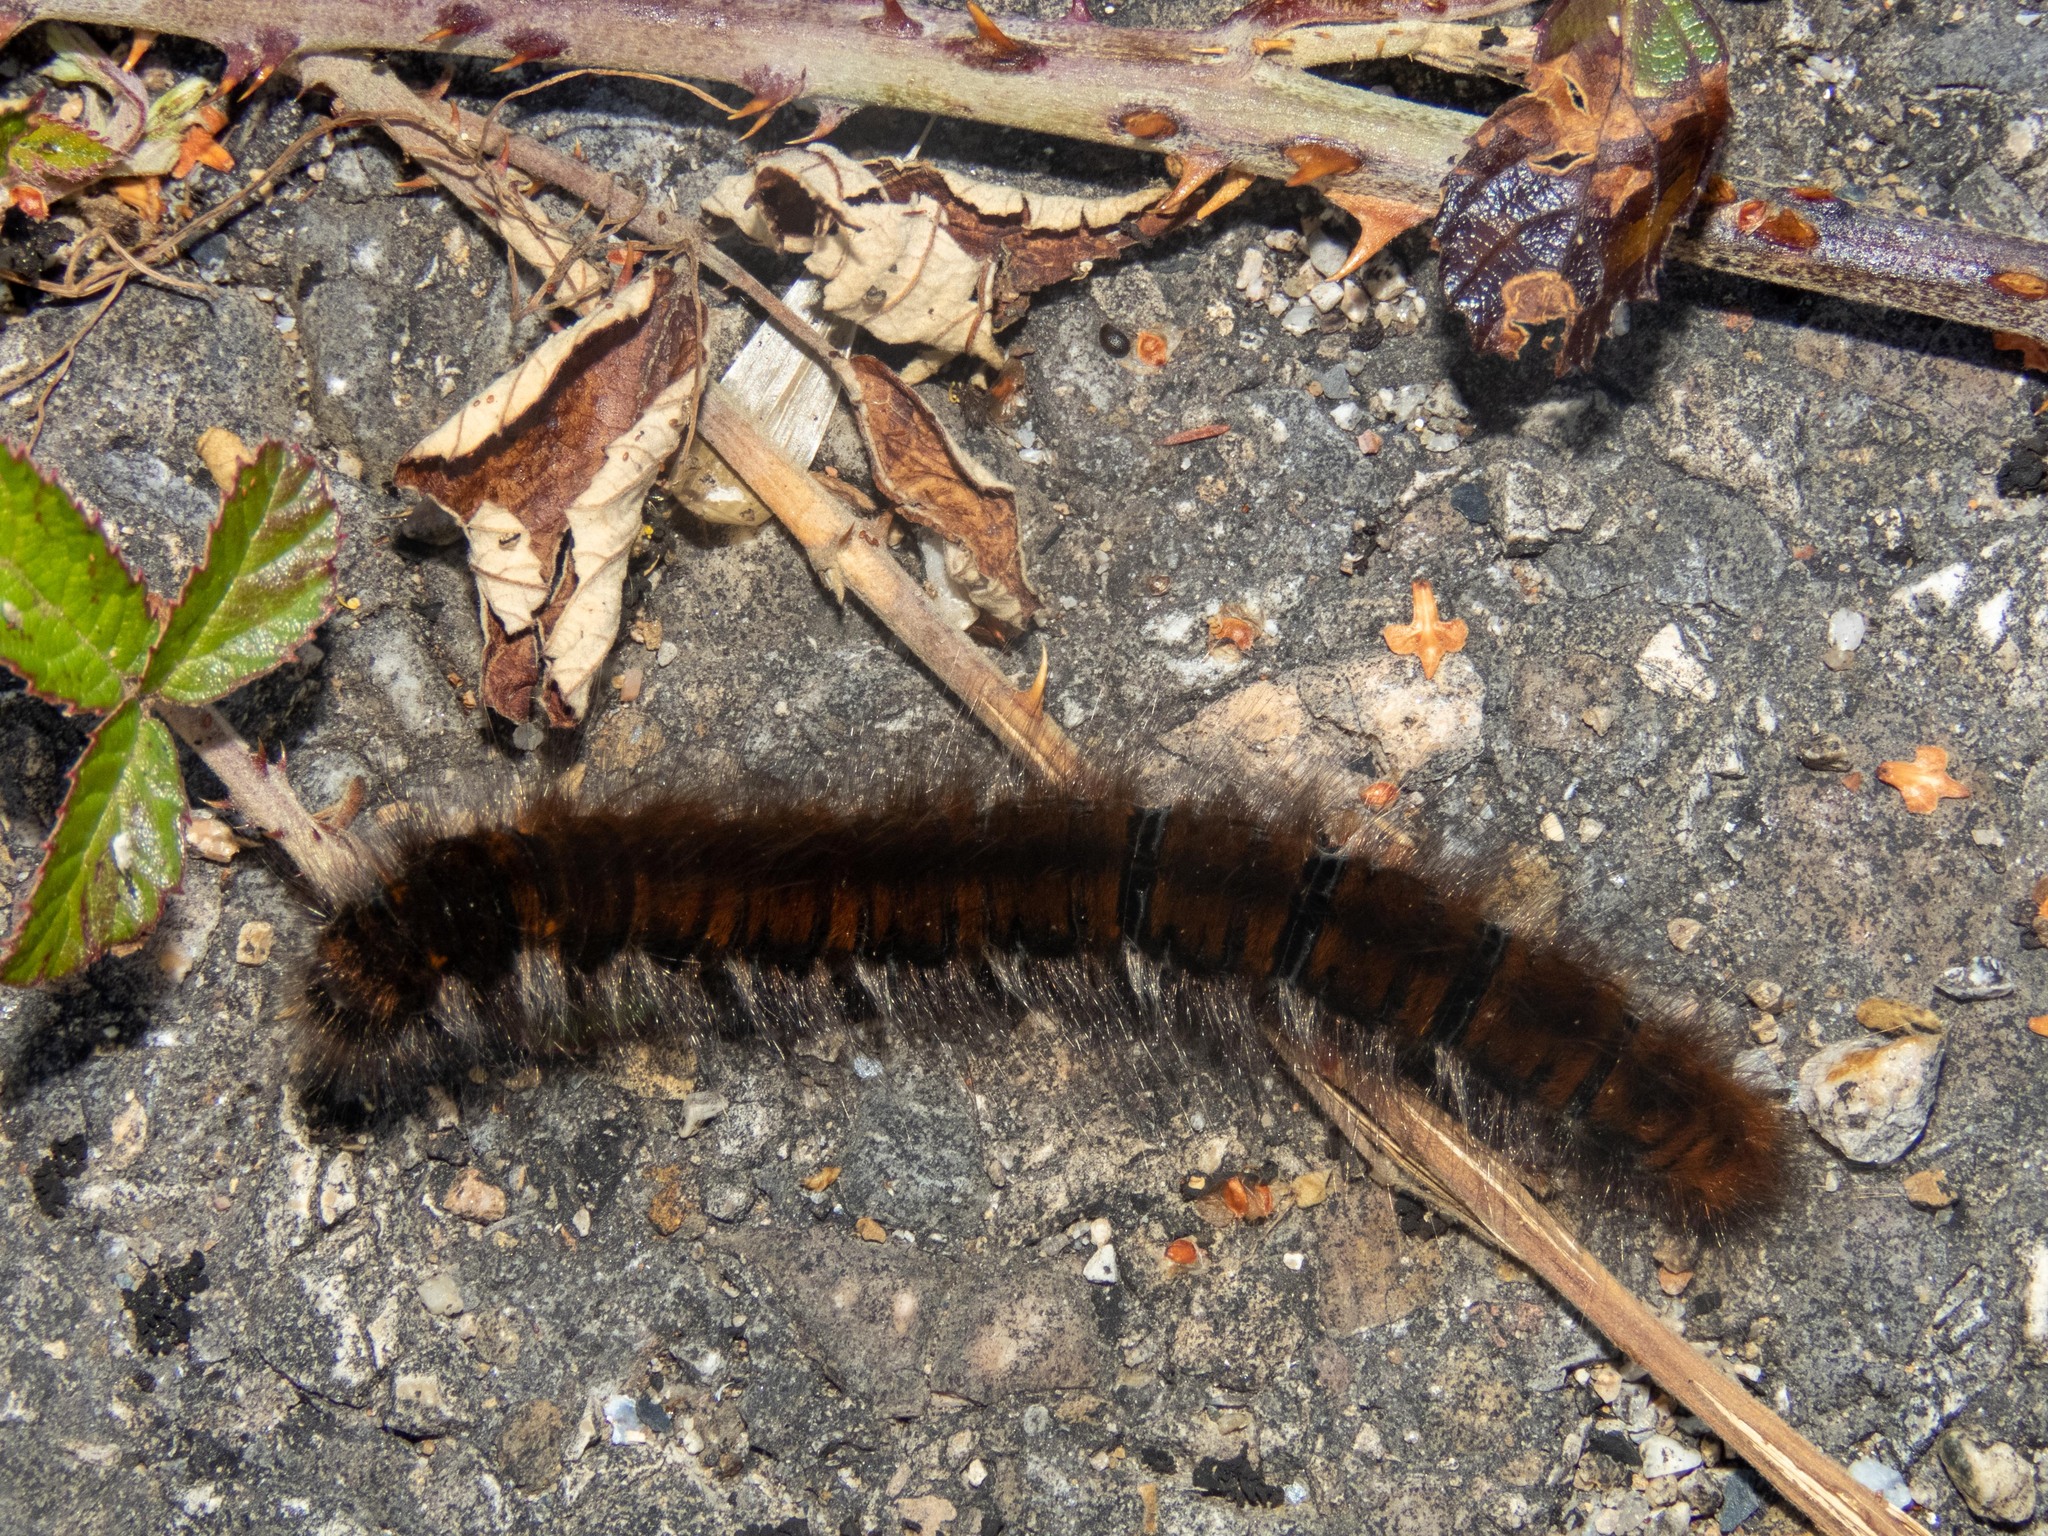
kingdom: Animalia
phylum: Arthropoda
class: Insecta
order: Lepidoptera
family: Lasiocampidae
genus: Macrothylacia
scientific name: Macrothylacia rubi
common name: Fox moth
